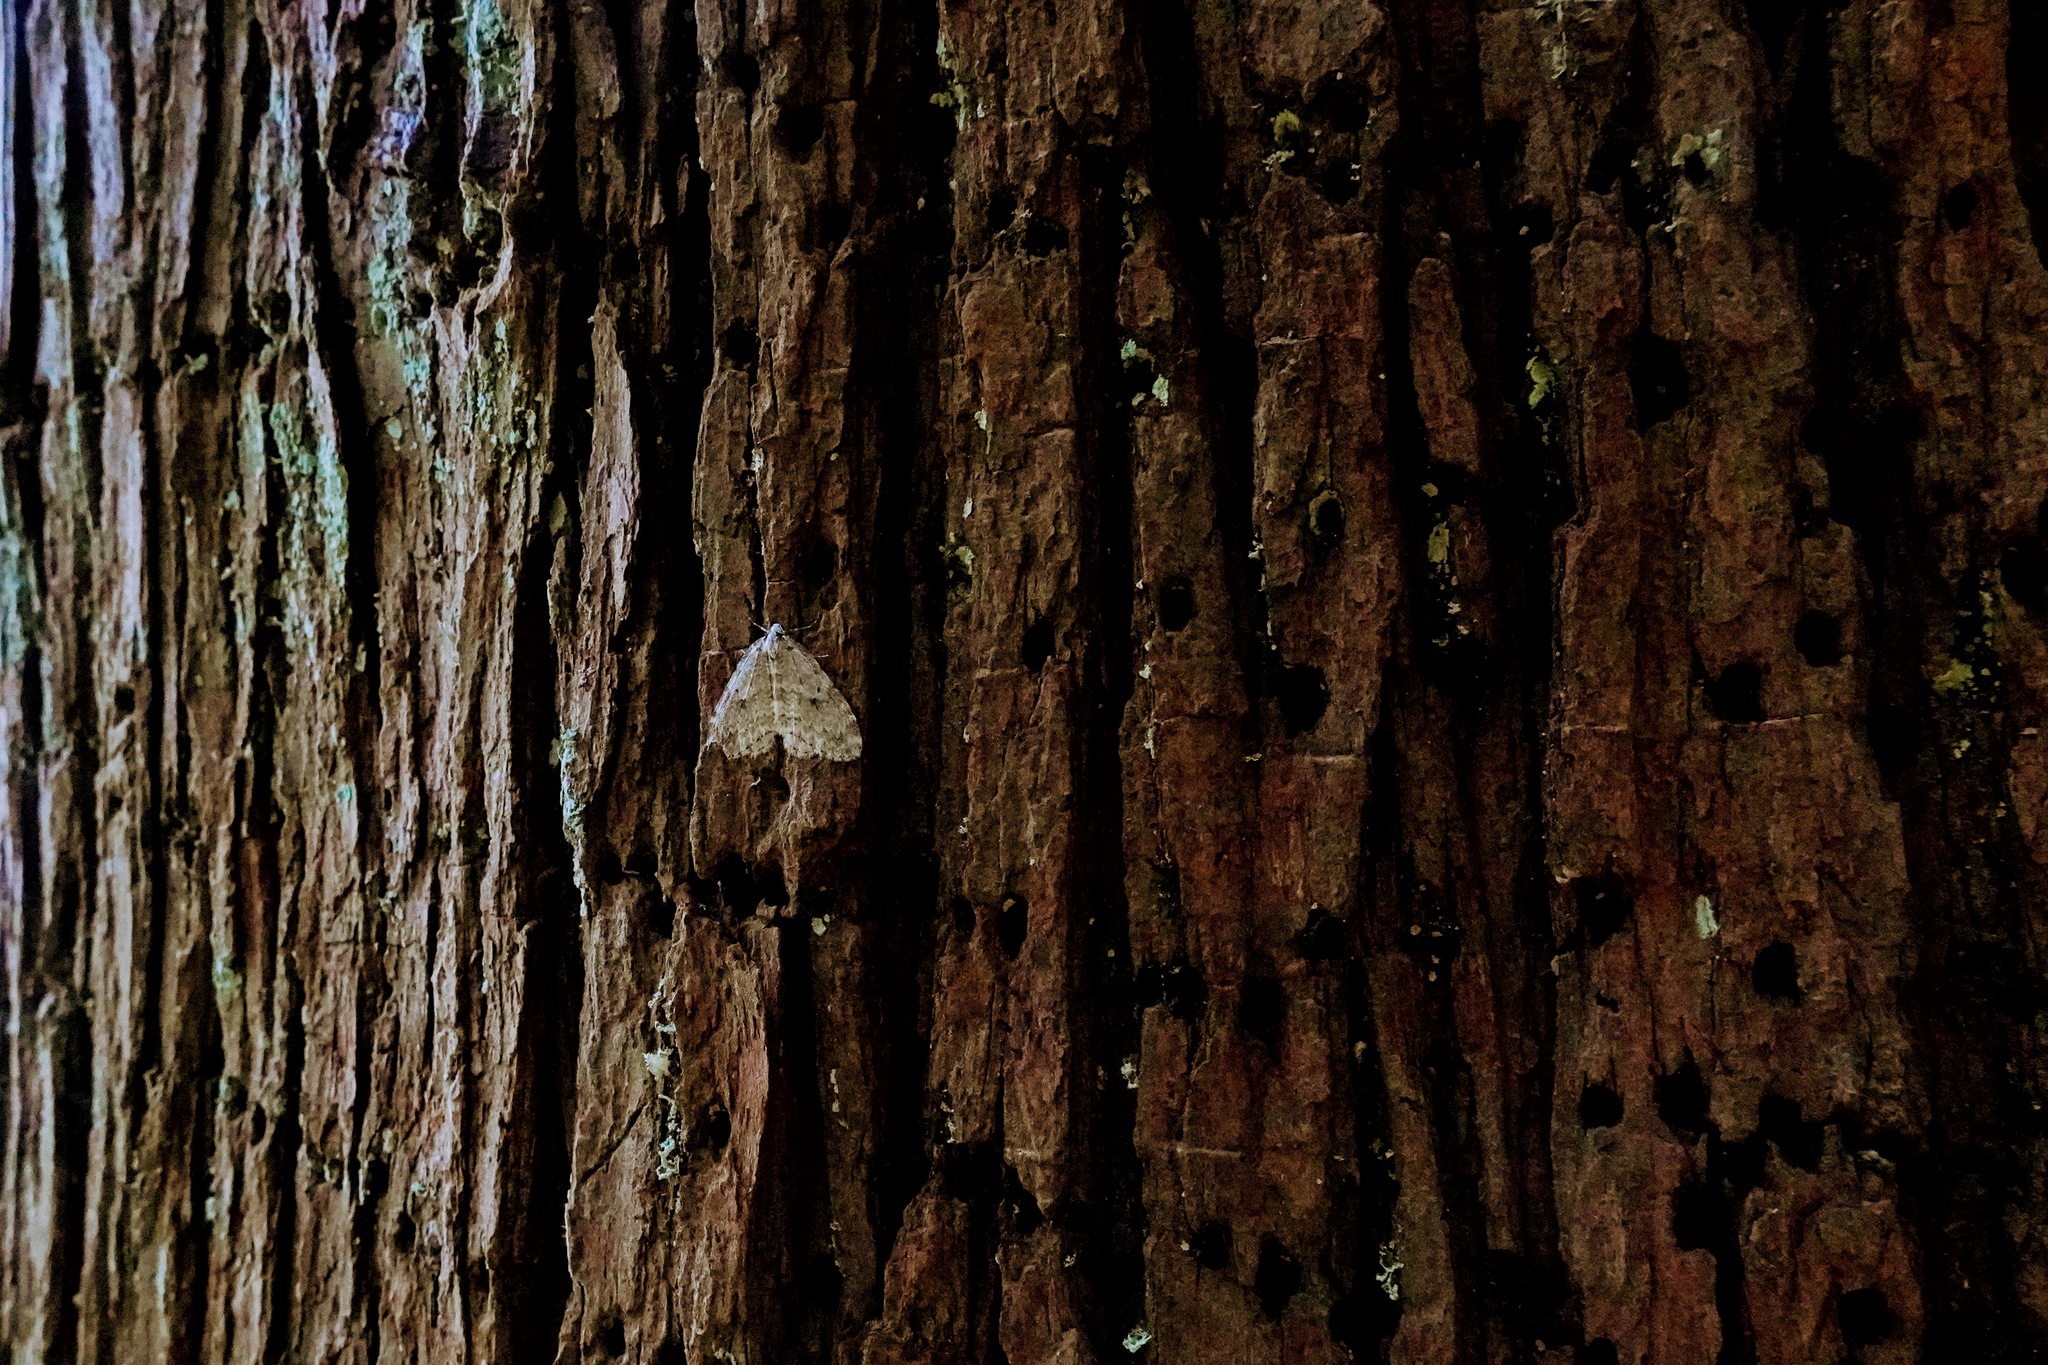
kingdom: Animalia
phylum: Arthropoda
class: Insecta
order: Lepidoptera
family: Geometridae
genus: Epirrita
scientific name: Epirrita autumnata
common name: Autumnal moth
